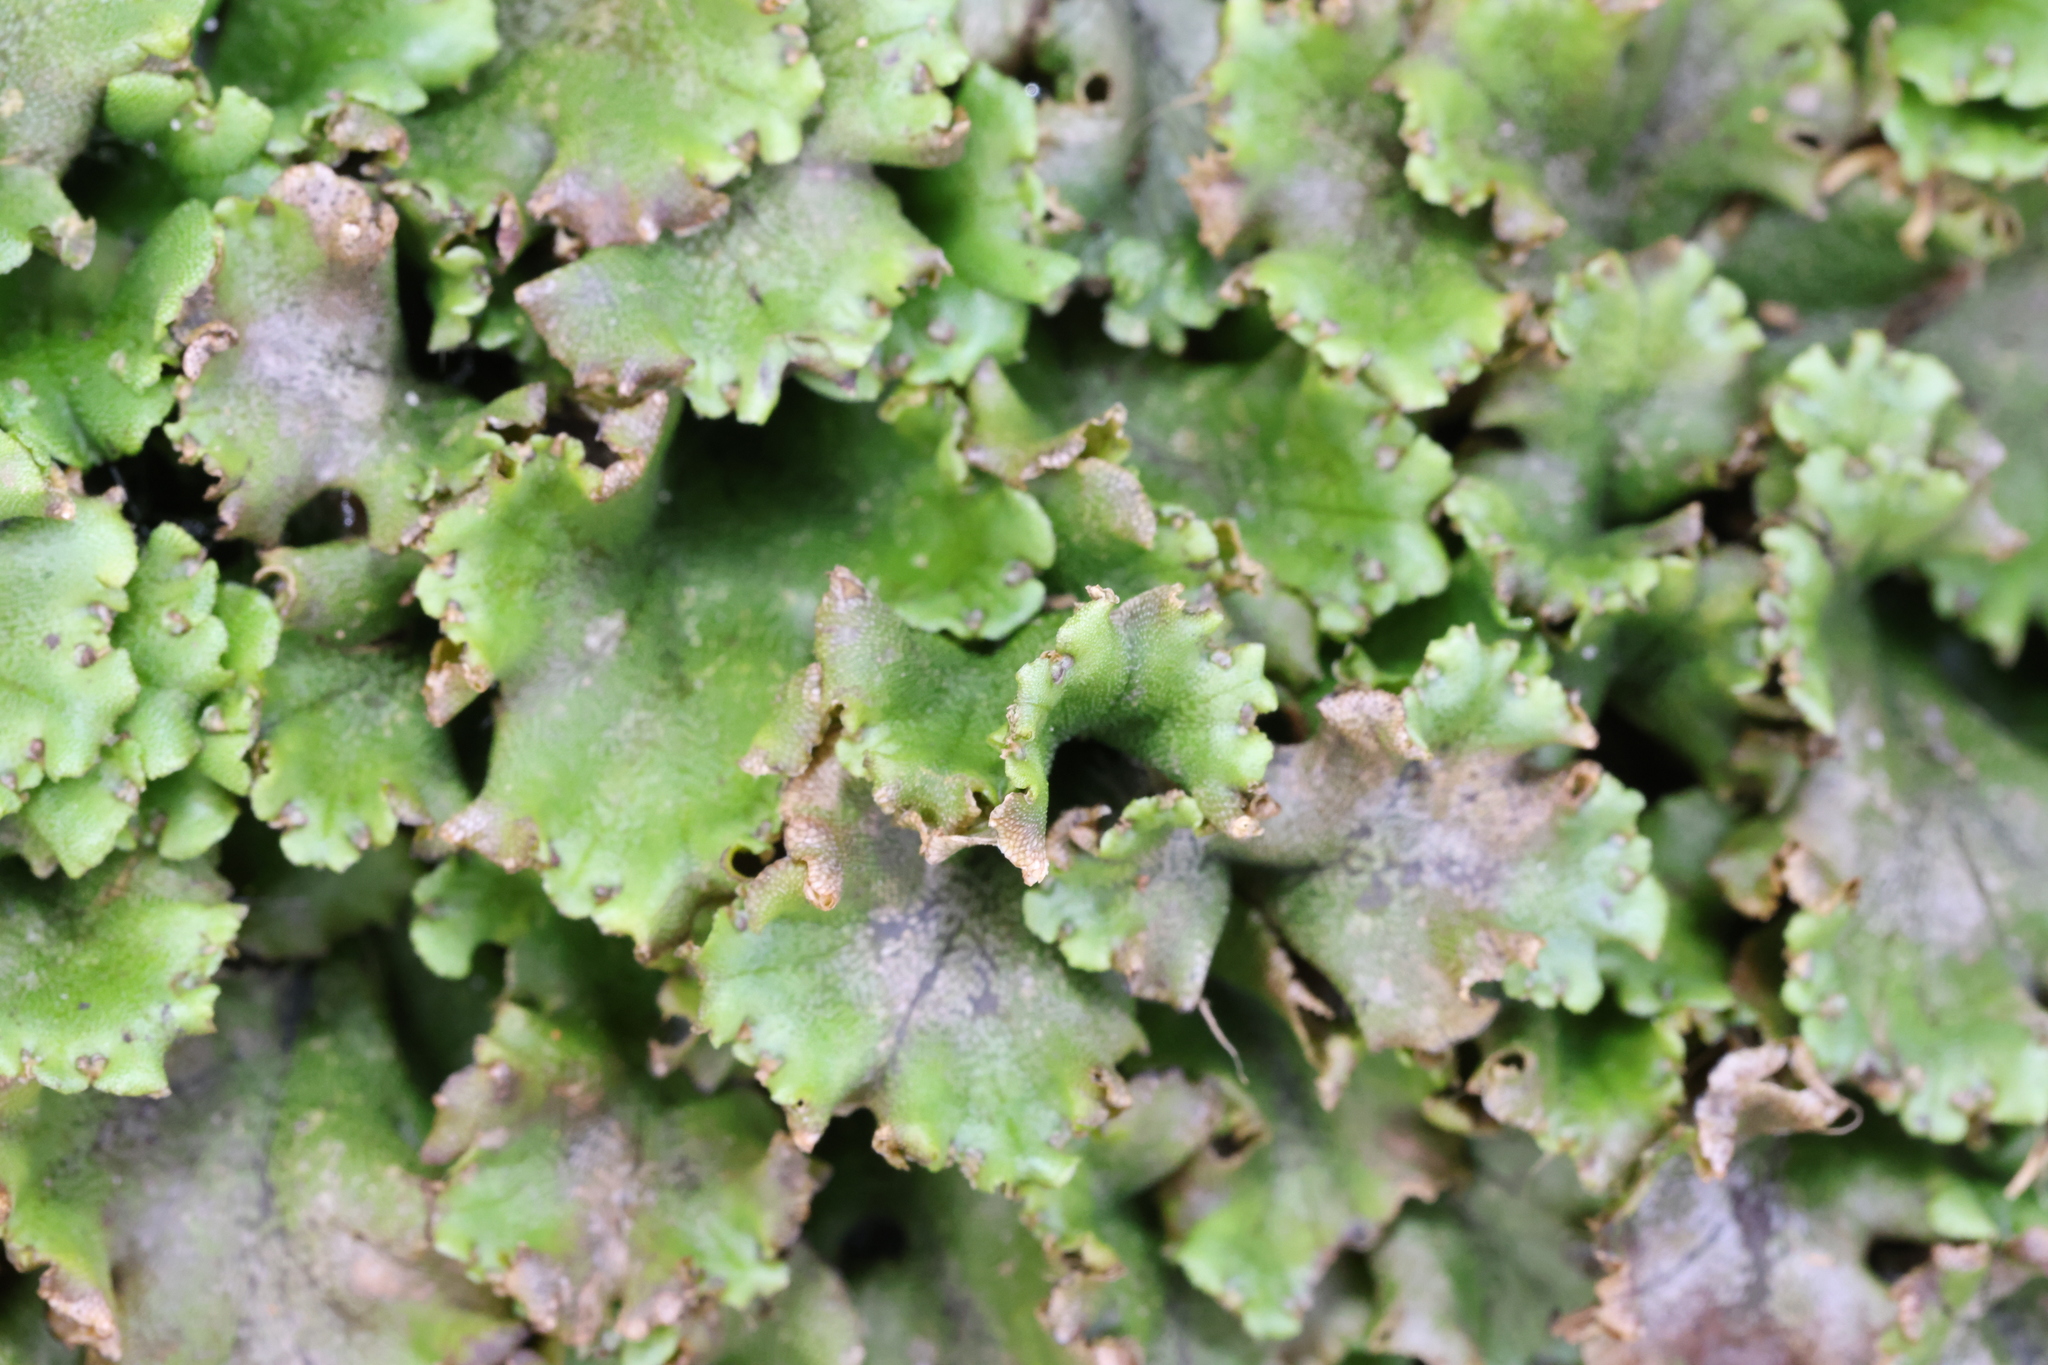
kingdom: Plantae
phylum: Marchantiophyta
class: Marchantiopsida
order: Marchantiales
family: Marchantiaceae
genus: Marchantia
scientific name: Marchantia polymorpha
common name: Common liverwort
